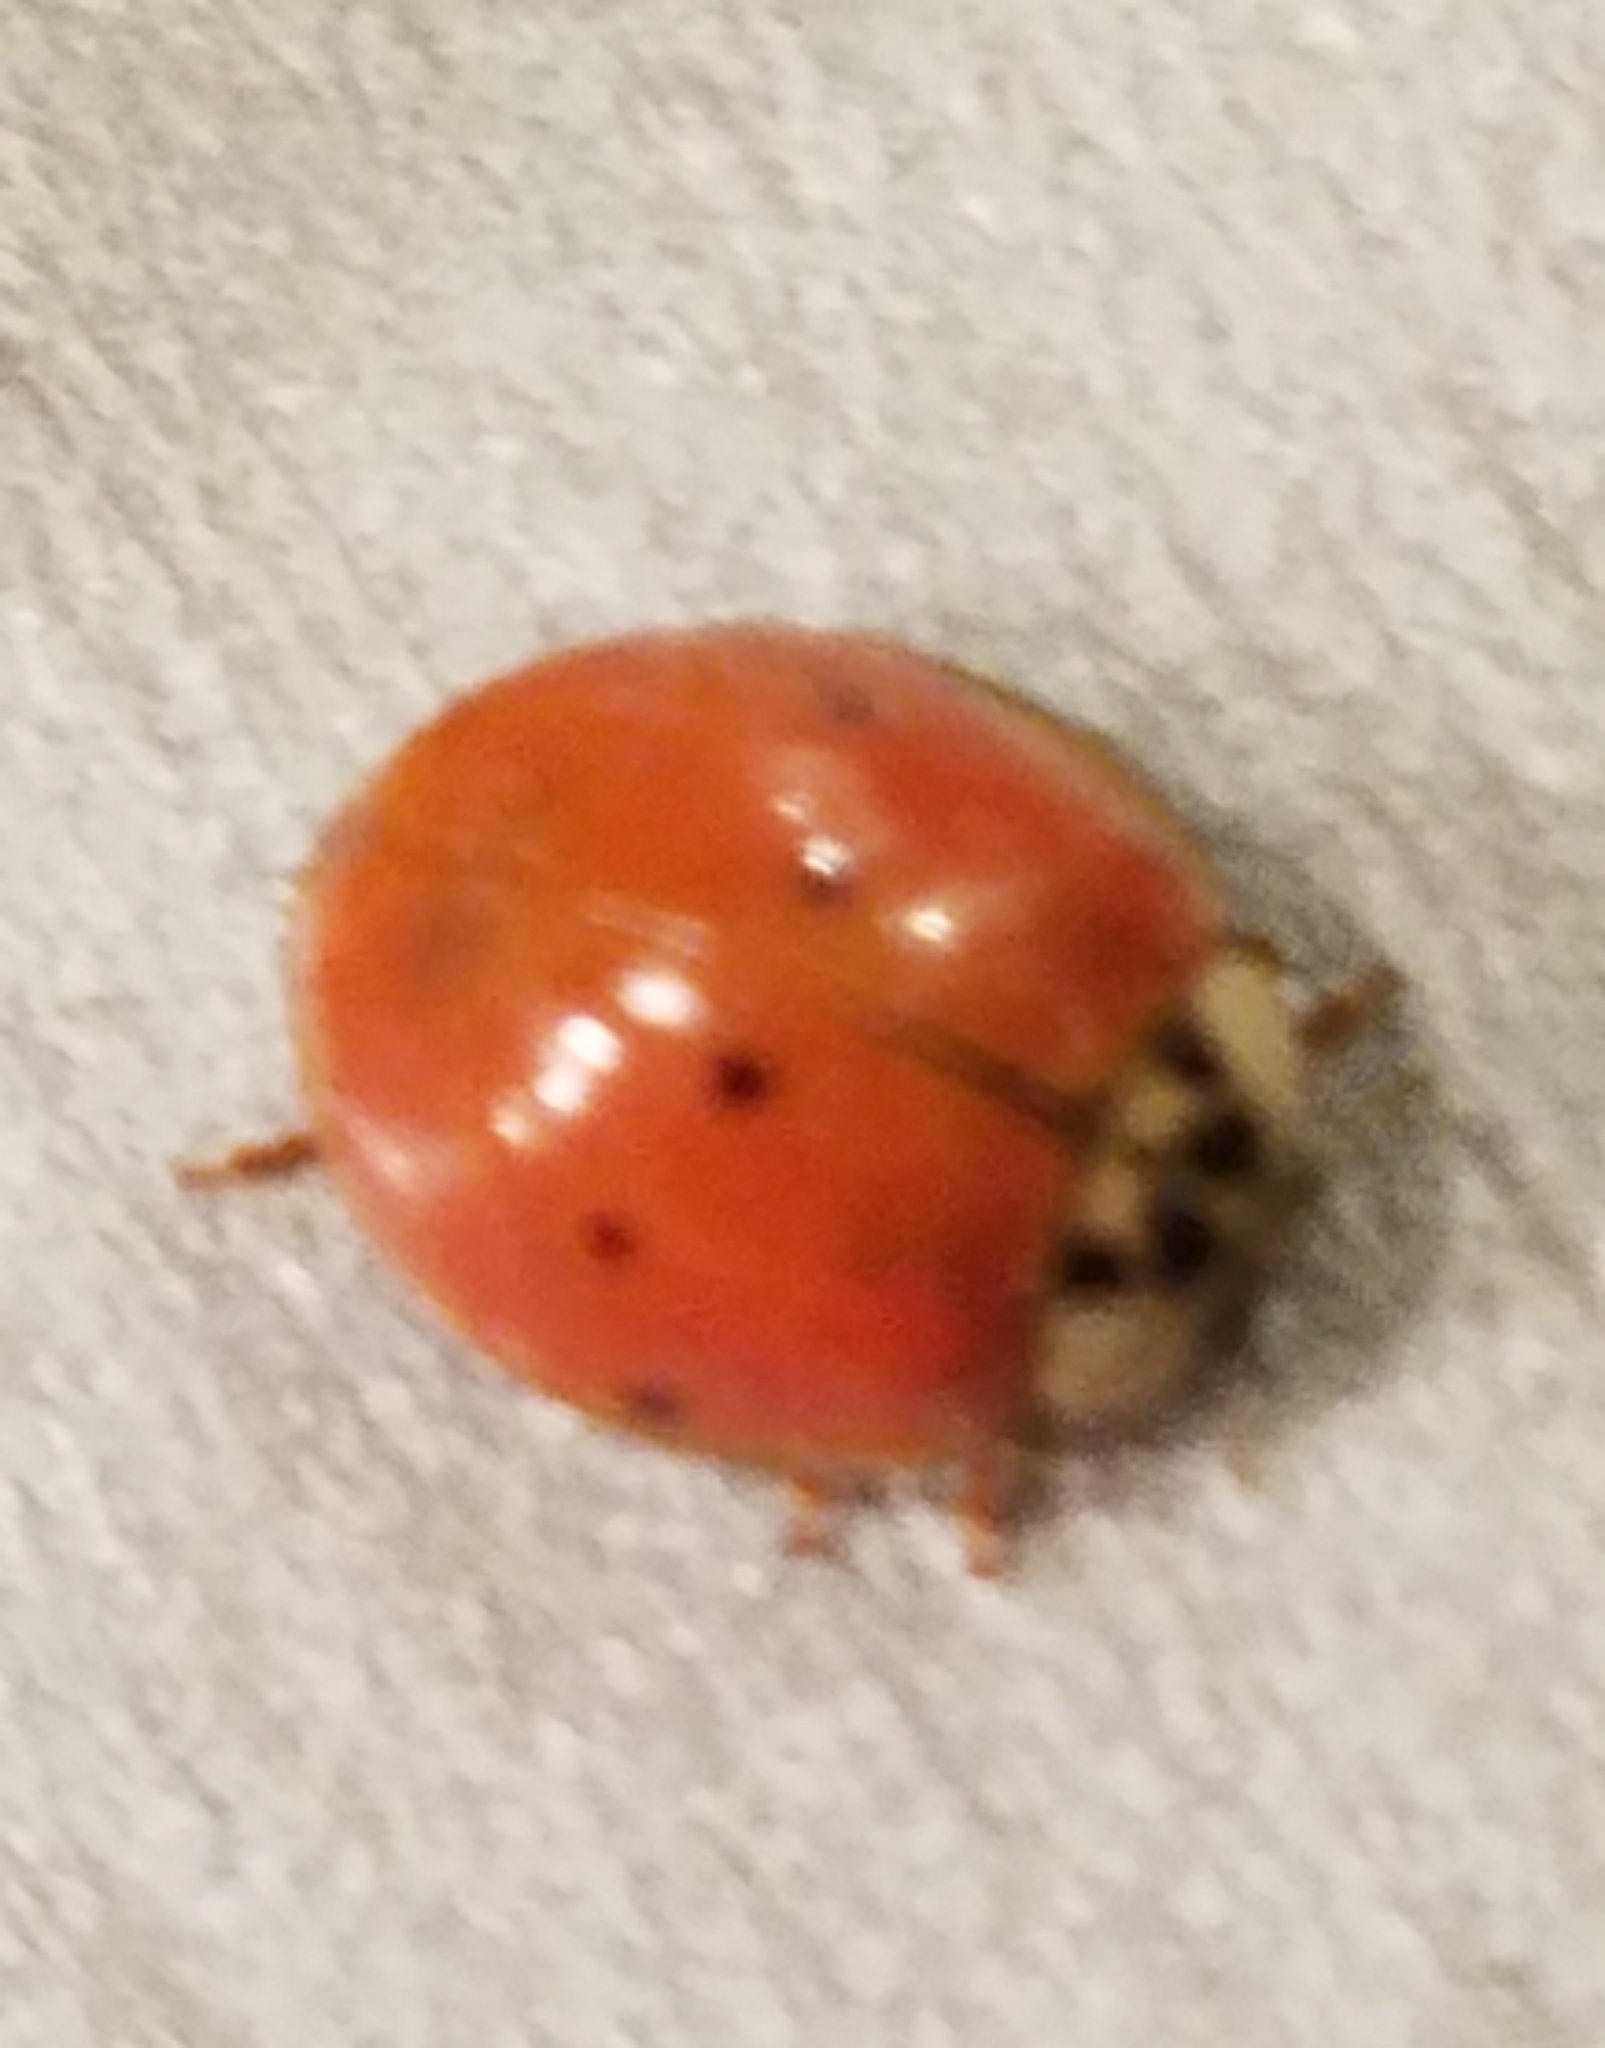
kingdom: Animalia
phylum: Arthropoda
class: Insecta
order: Coleoptera
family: Coccinellidae
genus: Harmonia
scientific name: Harmonia axyridis
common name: Harlequin ladybird
